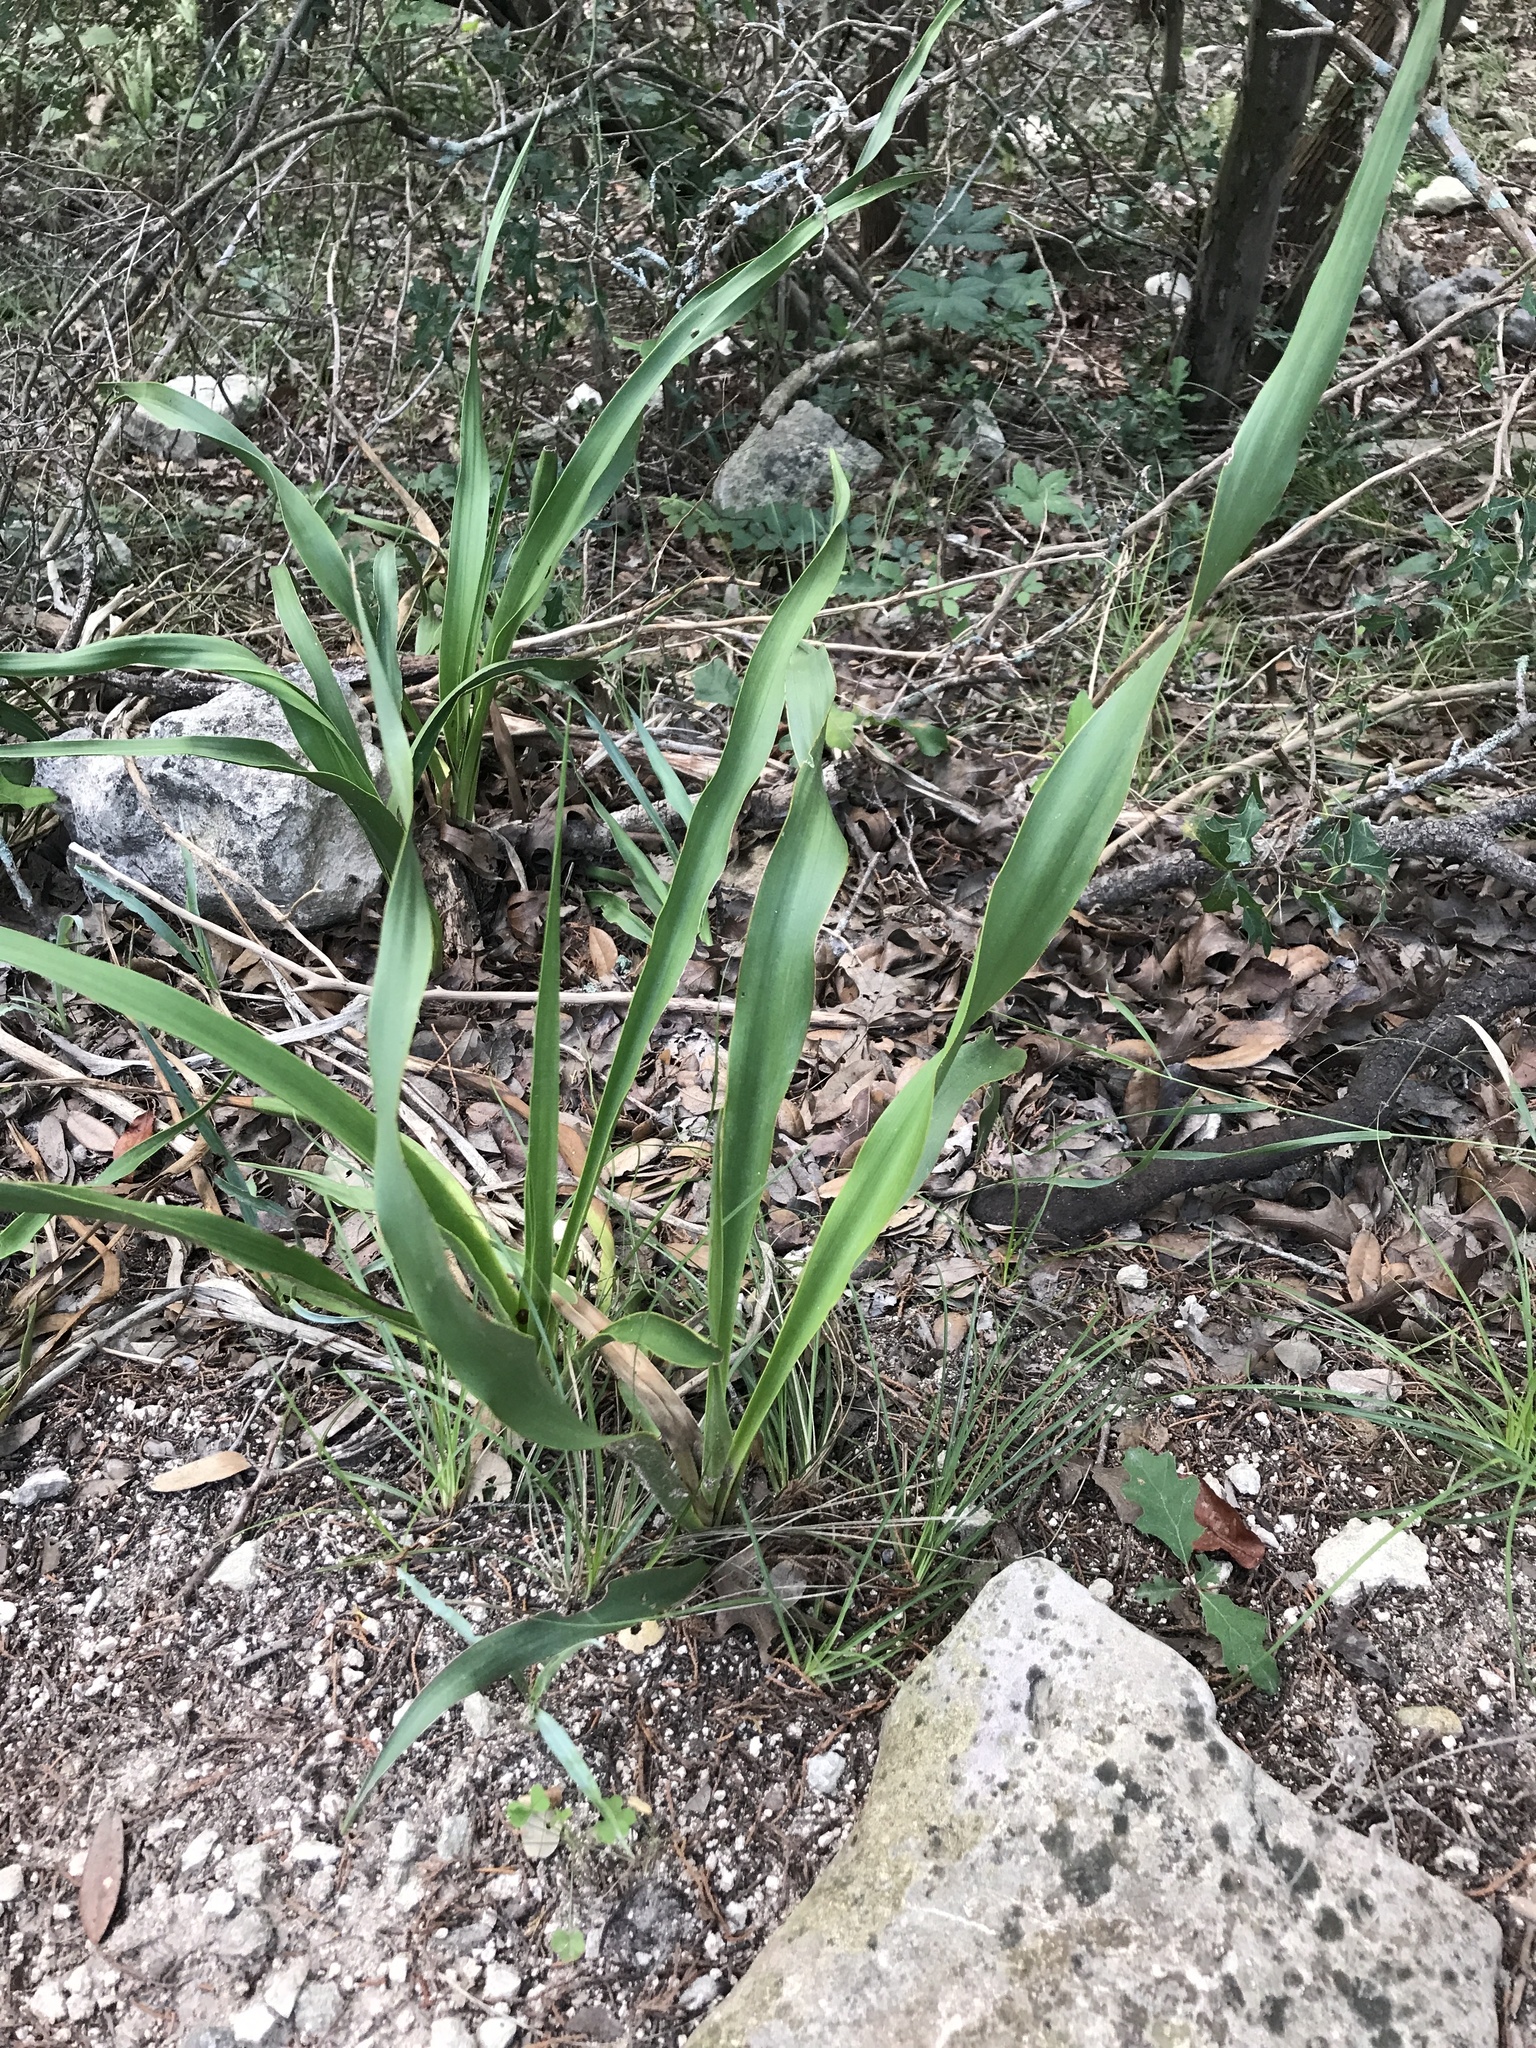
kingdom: Plantae
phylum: Tracheophyta
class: Liliopsida
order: Asparagales
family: Asparagaceae
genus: Yucca
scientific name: Yucca rupicola
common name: Twisted-leaf spanish-dagger
